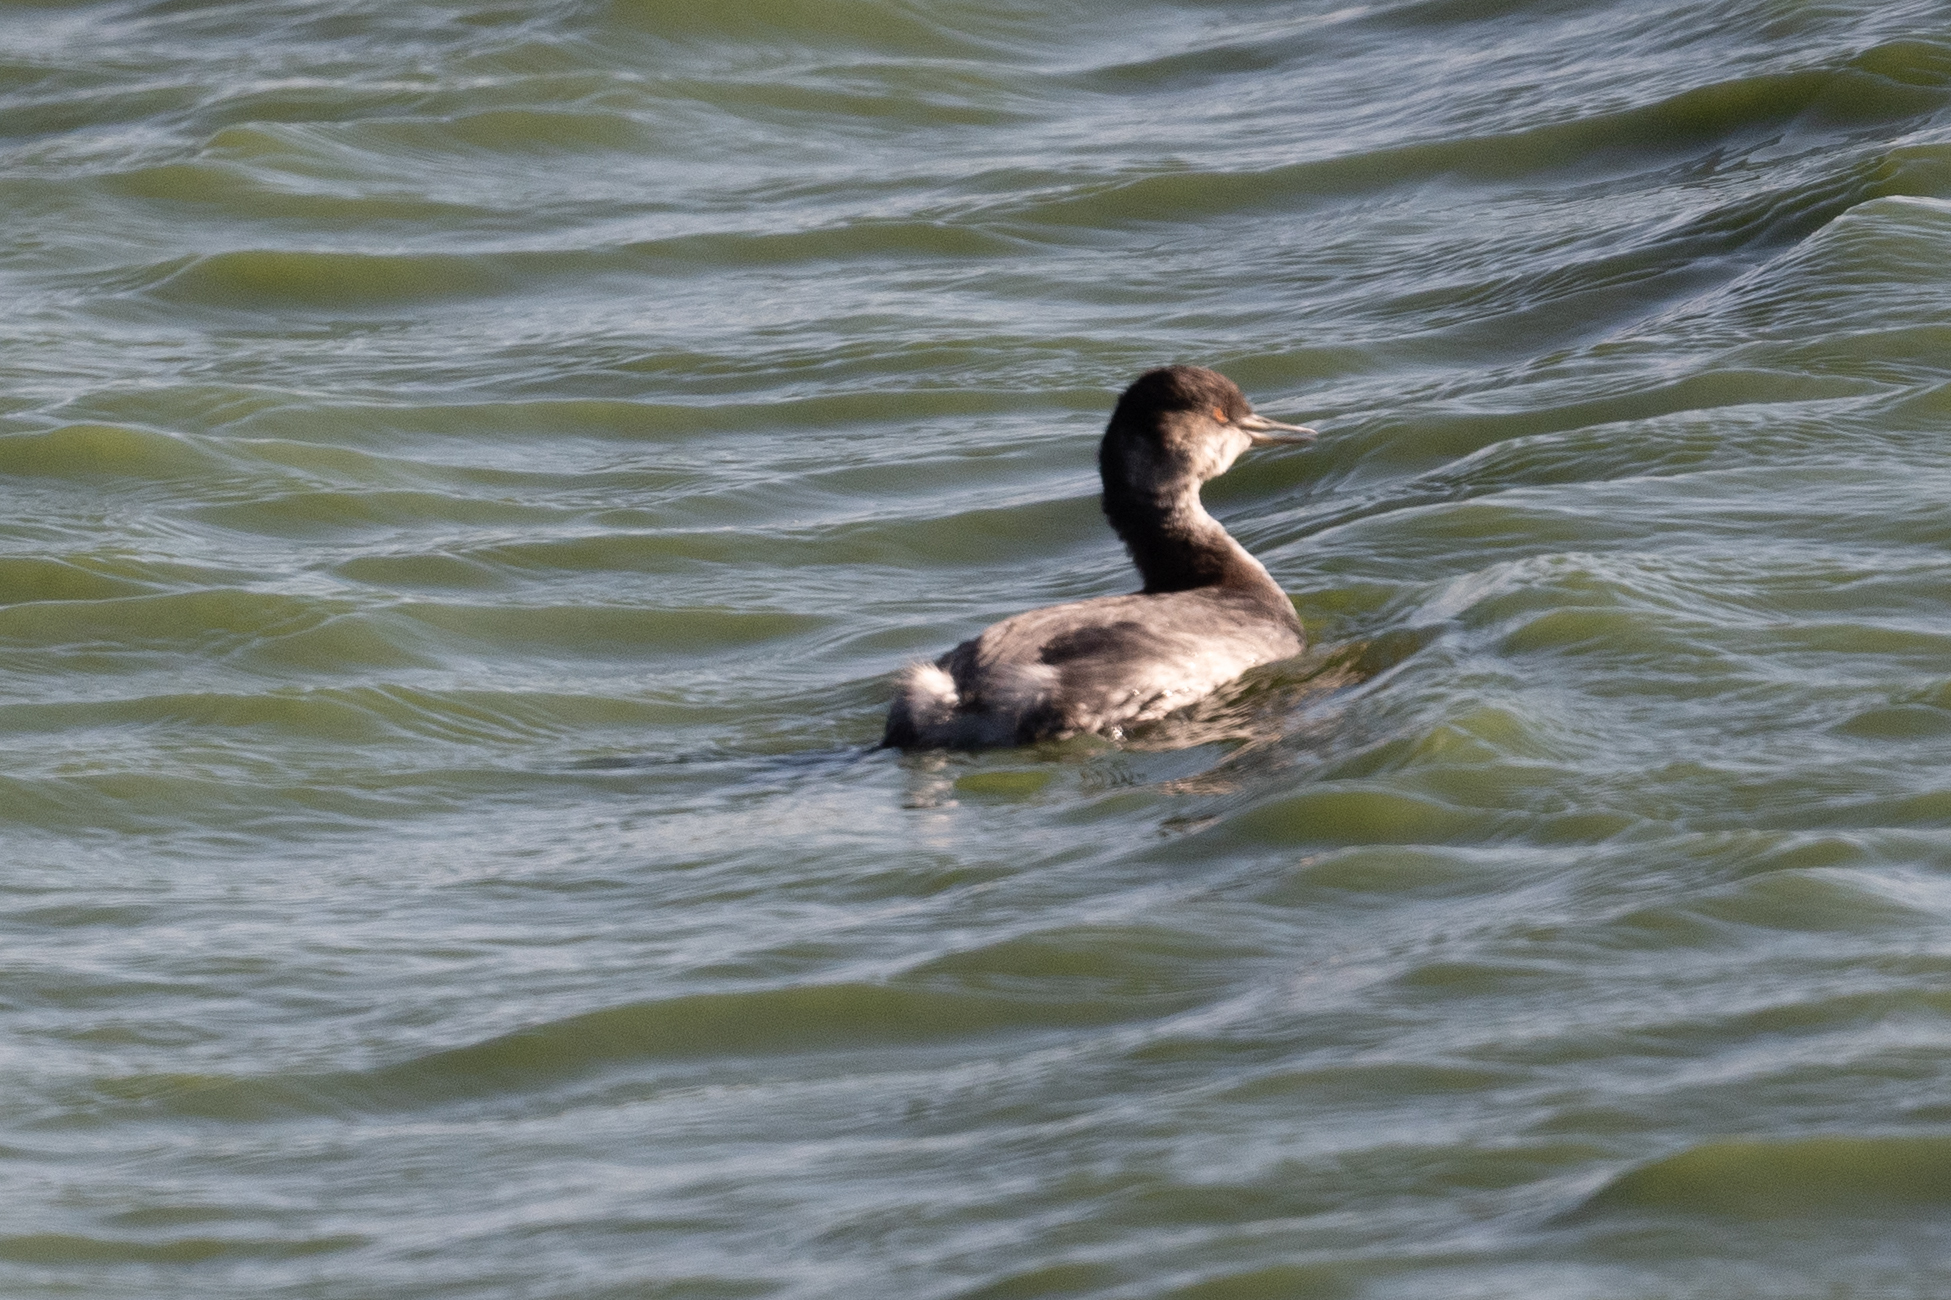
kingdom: Animalia
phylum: Chordata
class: Aves
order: Podicipediformes
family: Podicipedidae
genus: Podiceps
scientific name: Podiceps nigricollis
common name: Black-necked grebe
